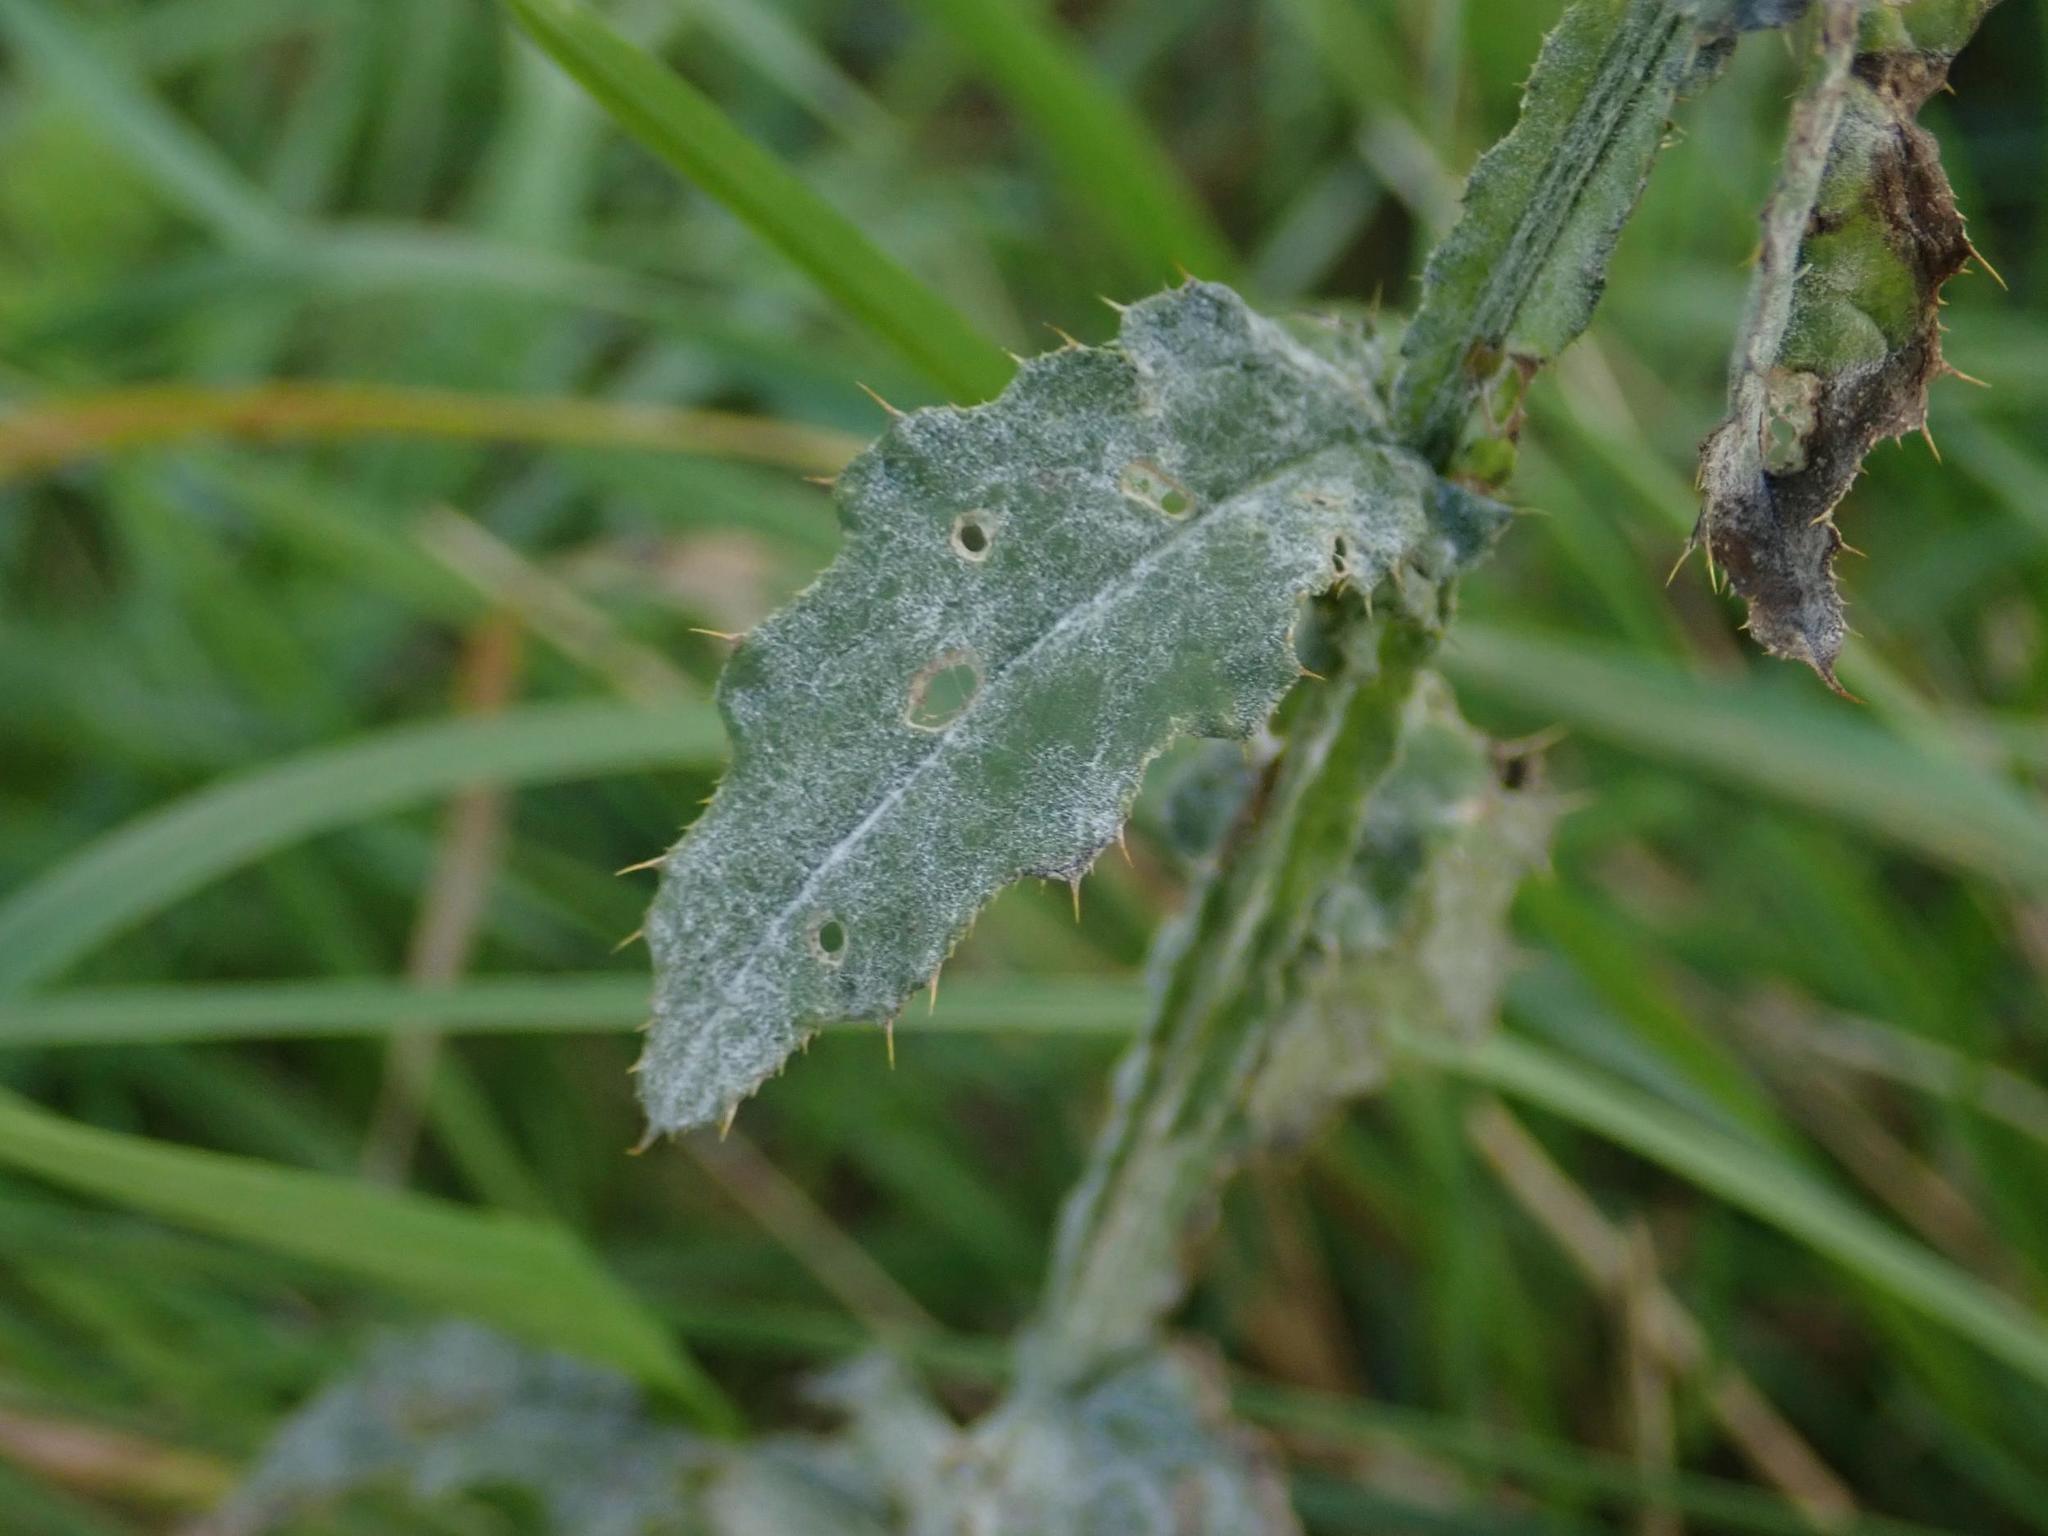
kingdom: Fungi
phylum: Ascomycota
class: Leotiomycetes
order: Helotiales
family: Erysiphaceae
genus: Golovinomyces
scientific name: Golovinomyces montagnei
